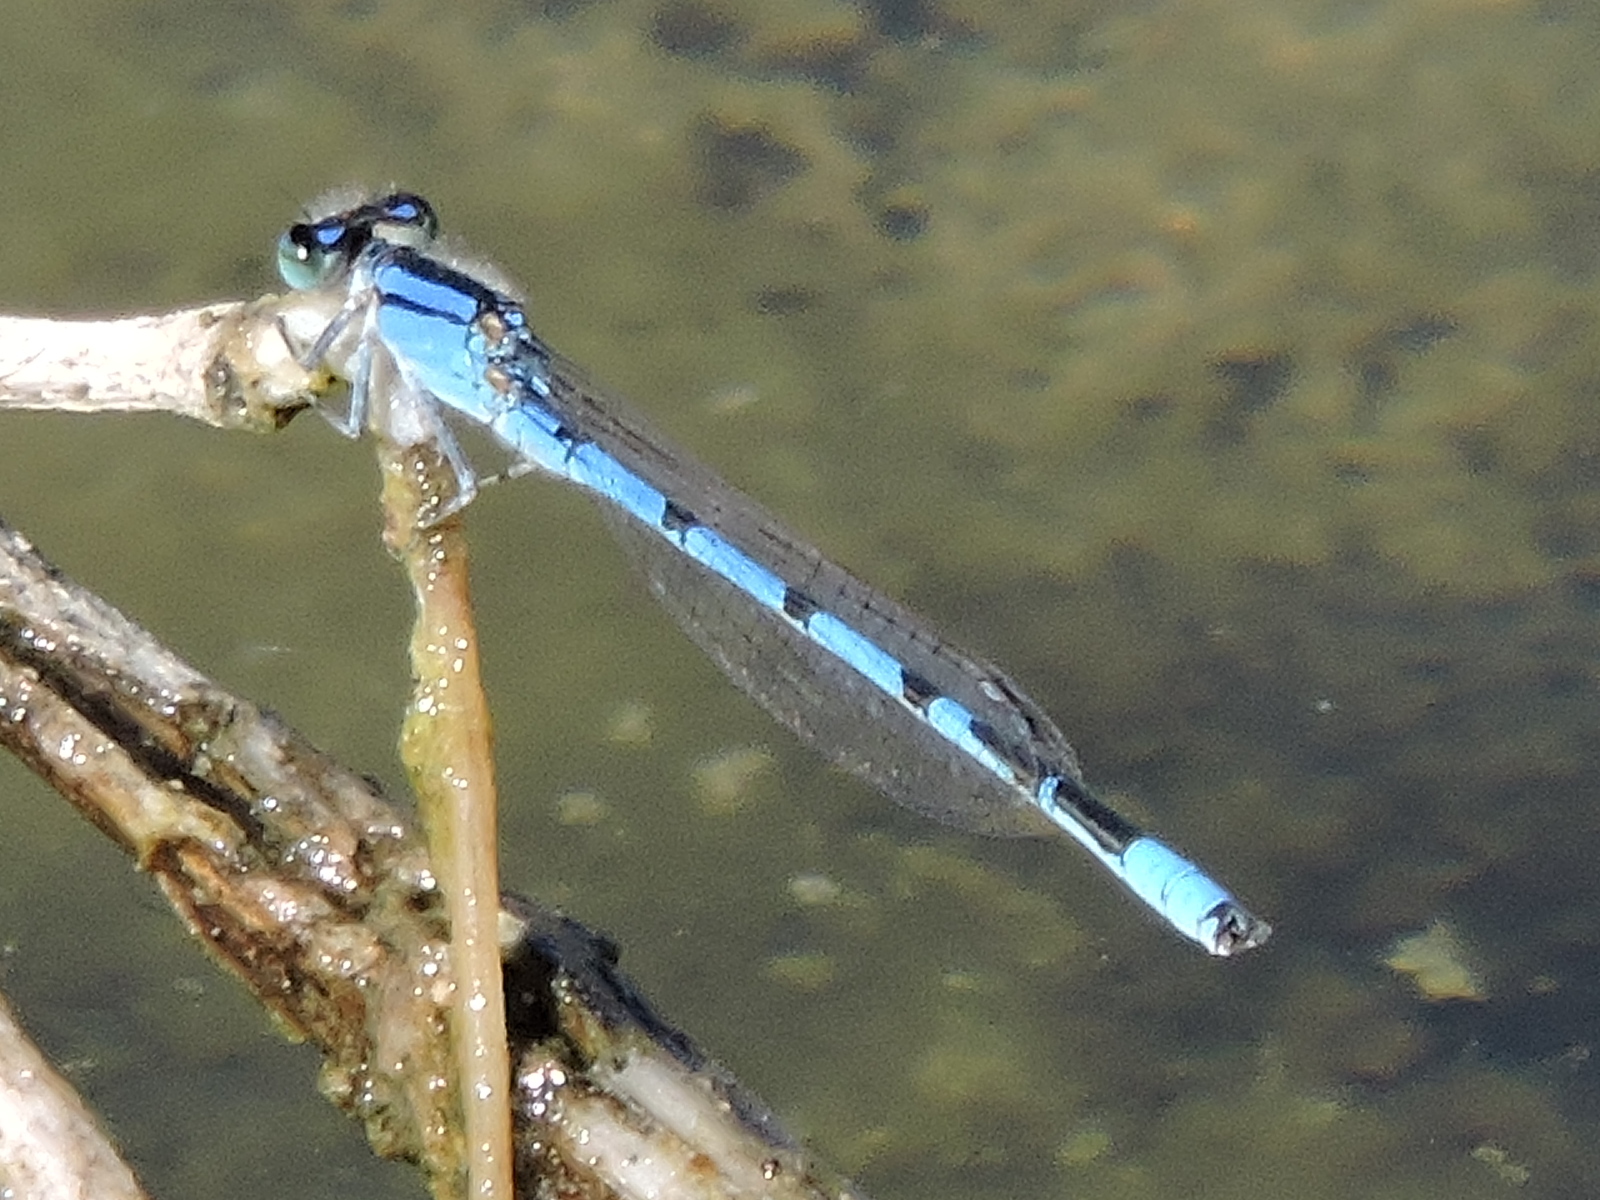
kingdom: Animalia
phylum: Arthropoda
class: Insecta
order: Odonata
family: Coenagrionidae
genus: Enallagma
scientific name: Enallagma civile
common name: Damselfly
